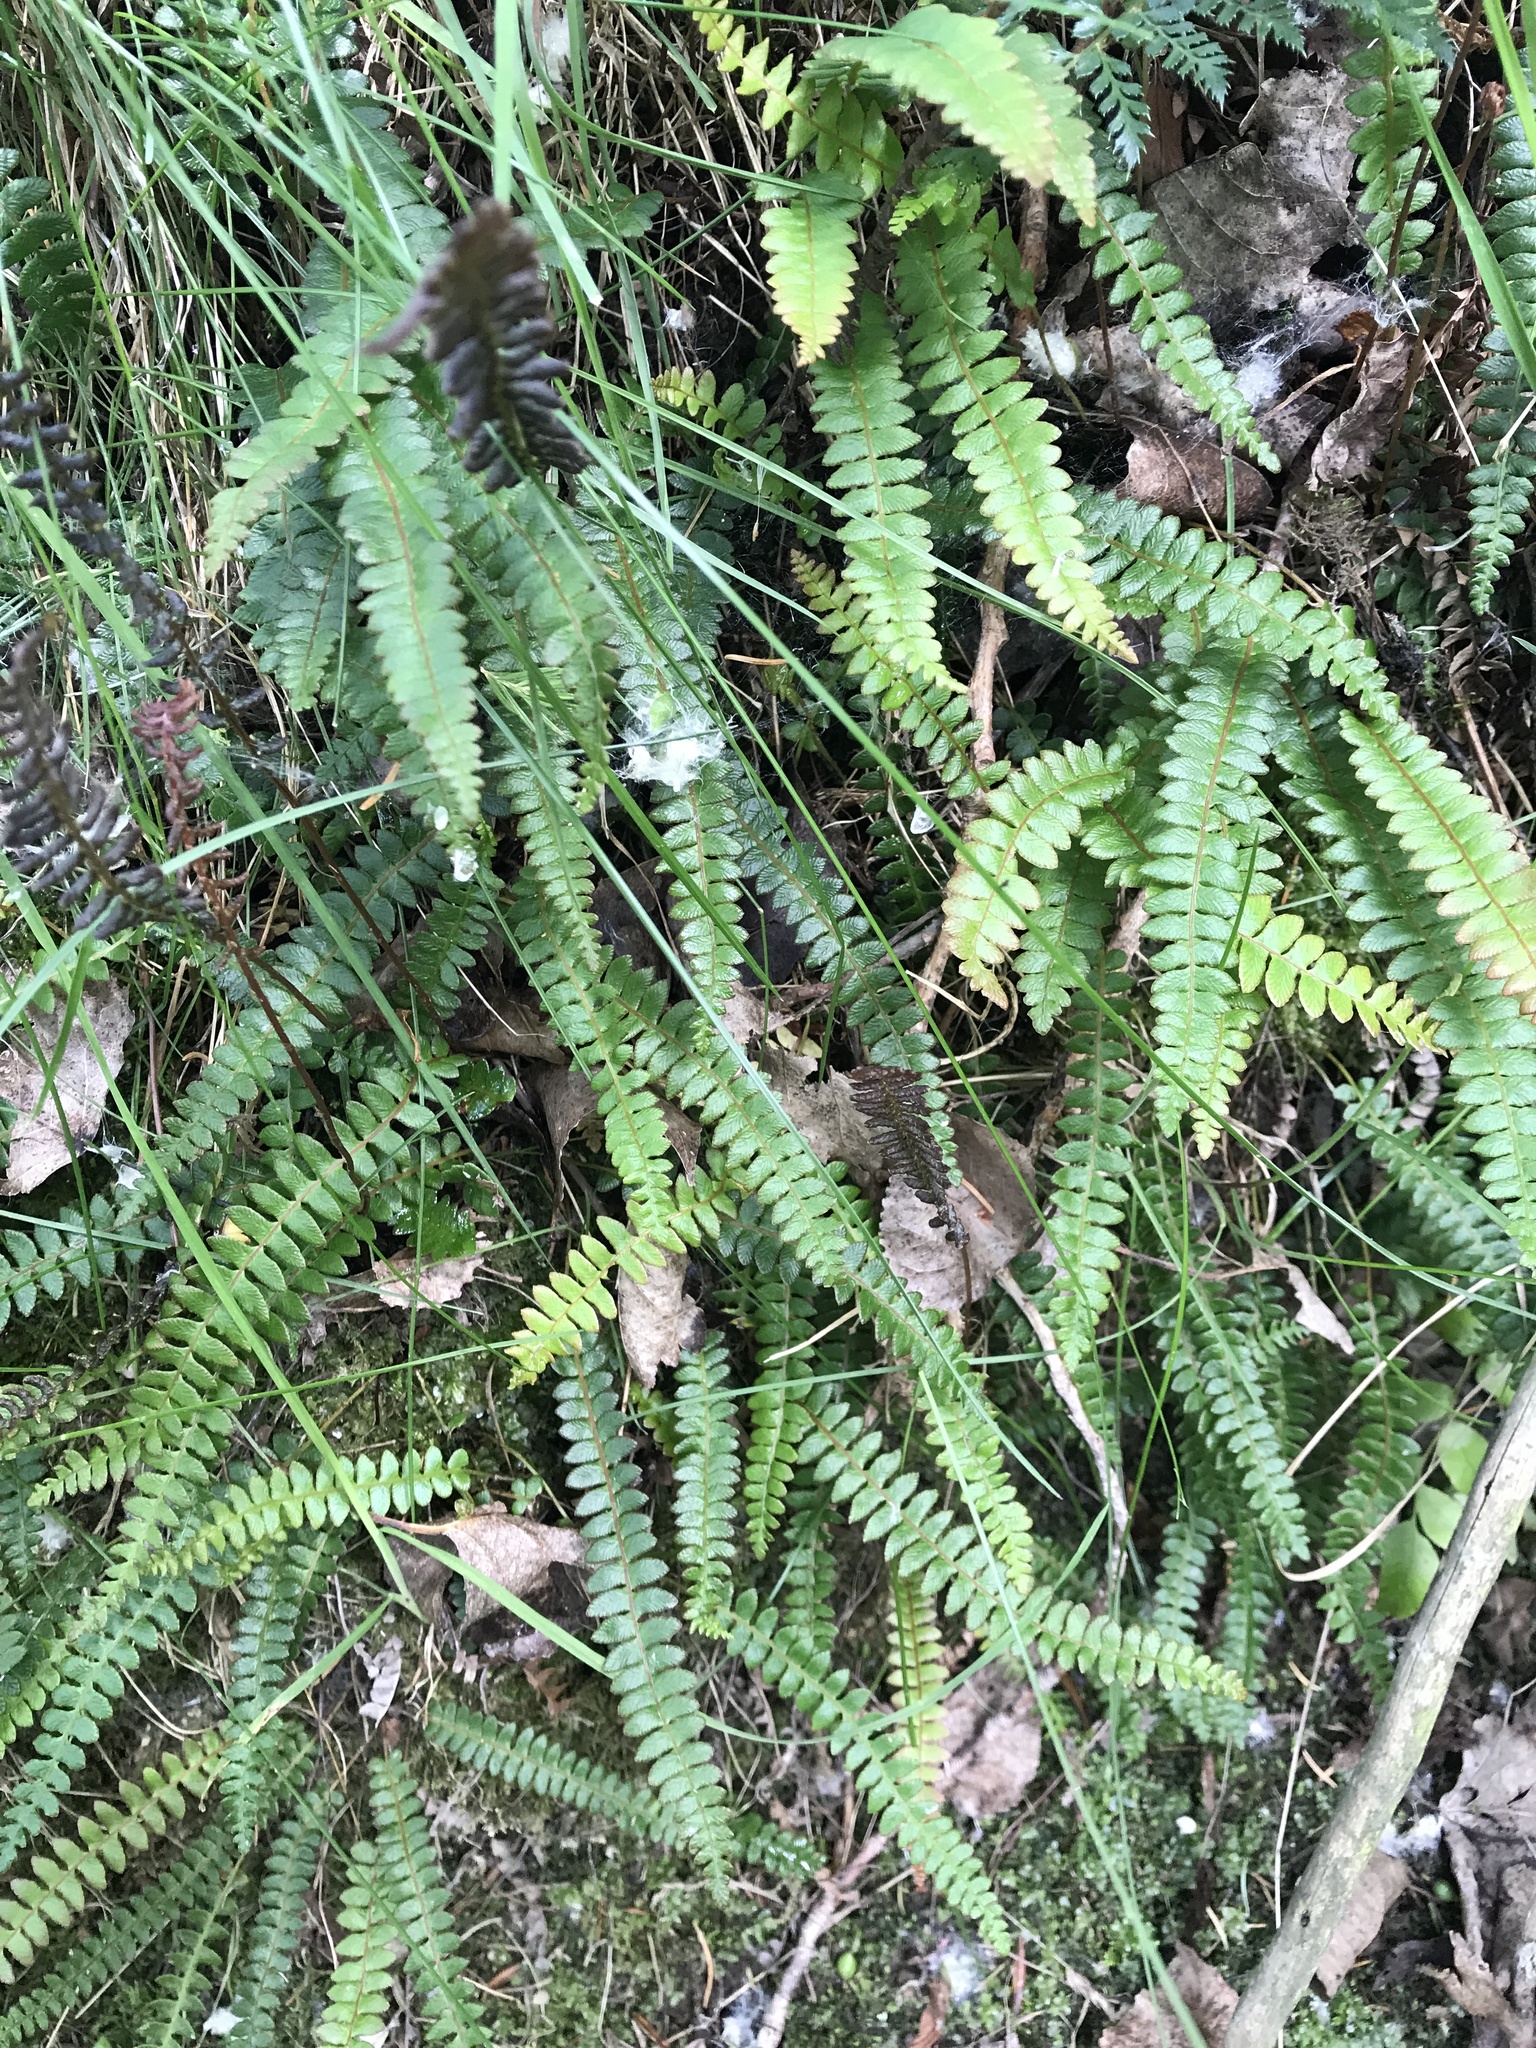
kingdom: Plantae
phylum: Tracheophyta
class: Polypodiopsida
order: Polypodiales
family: Blechnaceae
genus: Austroblechnum
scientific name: Austroblechnum penna-marina
